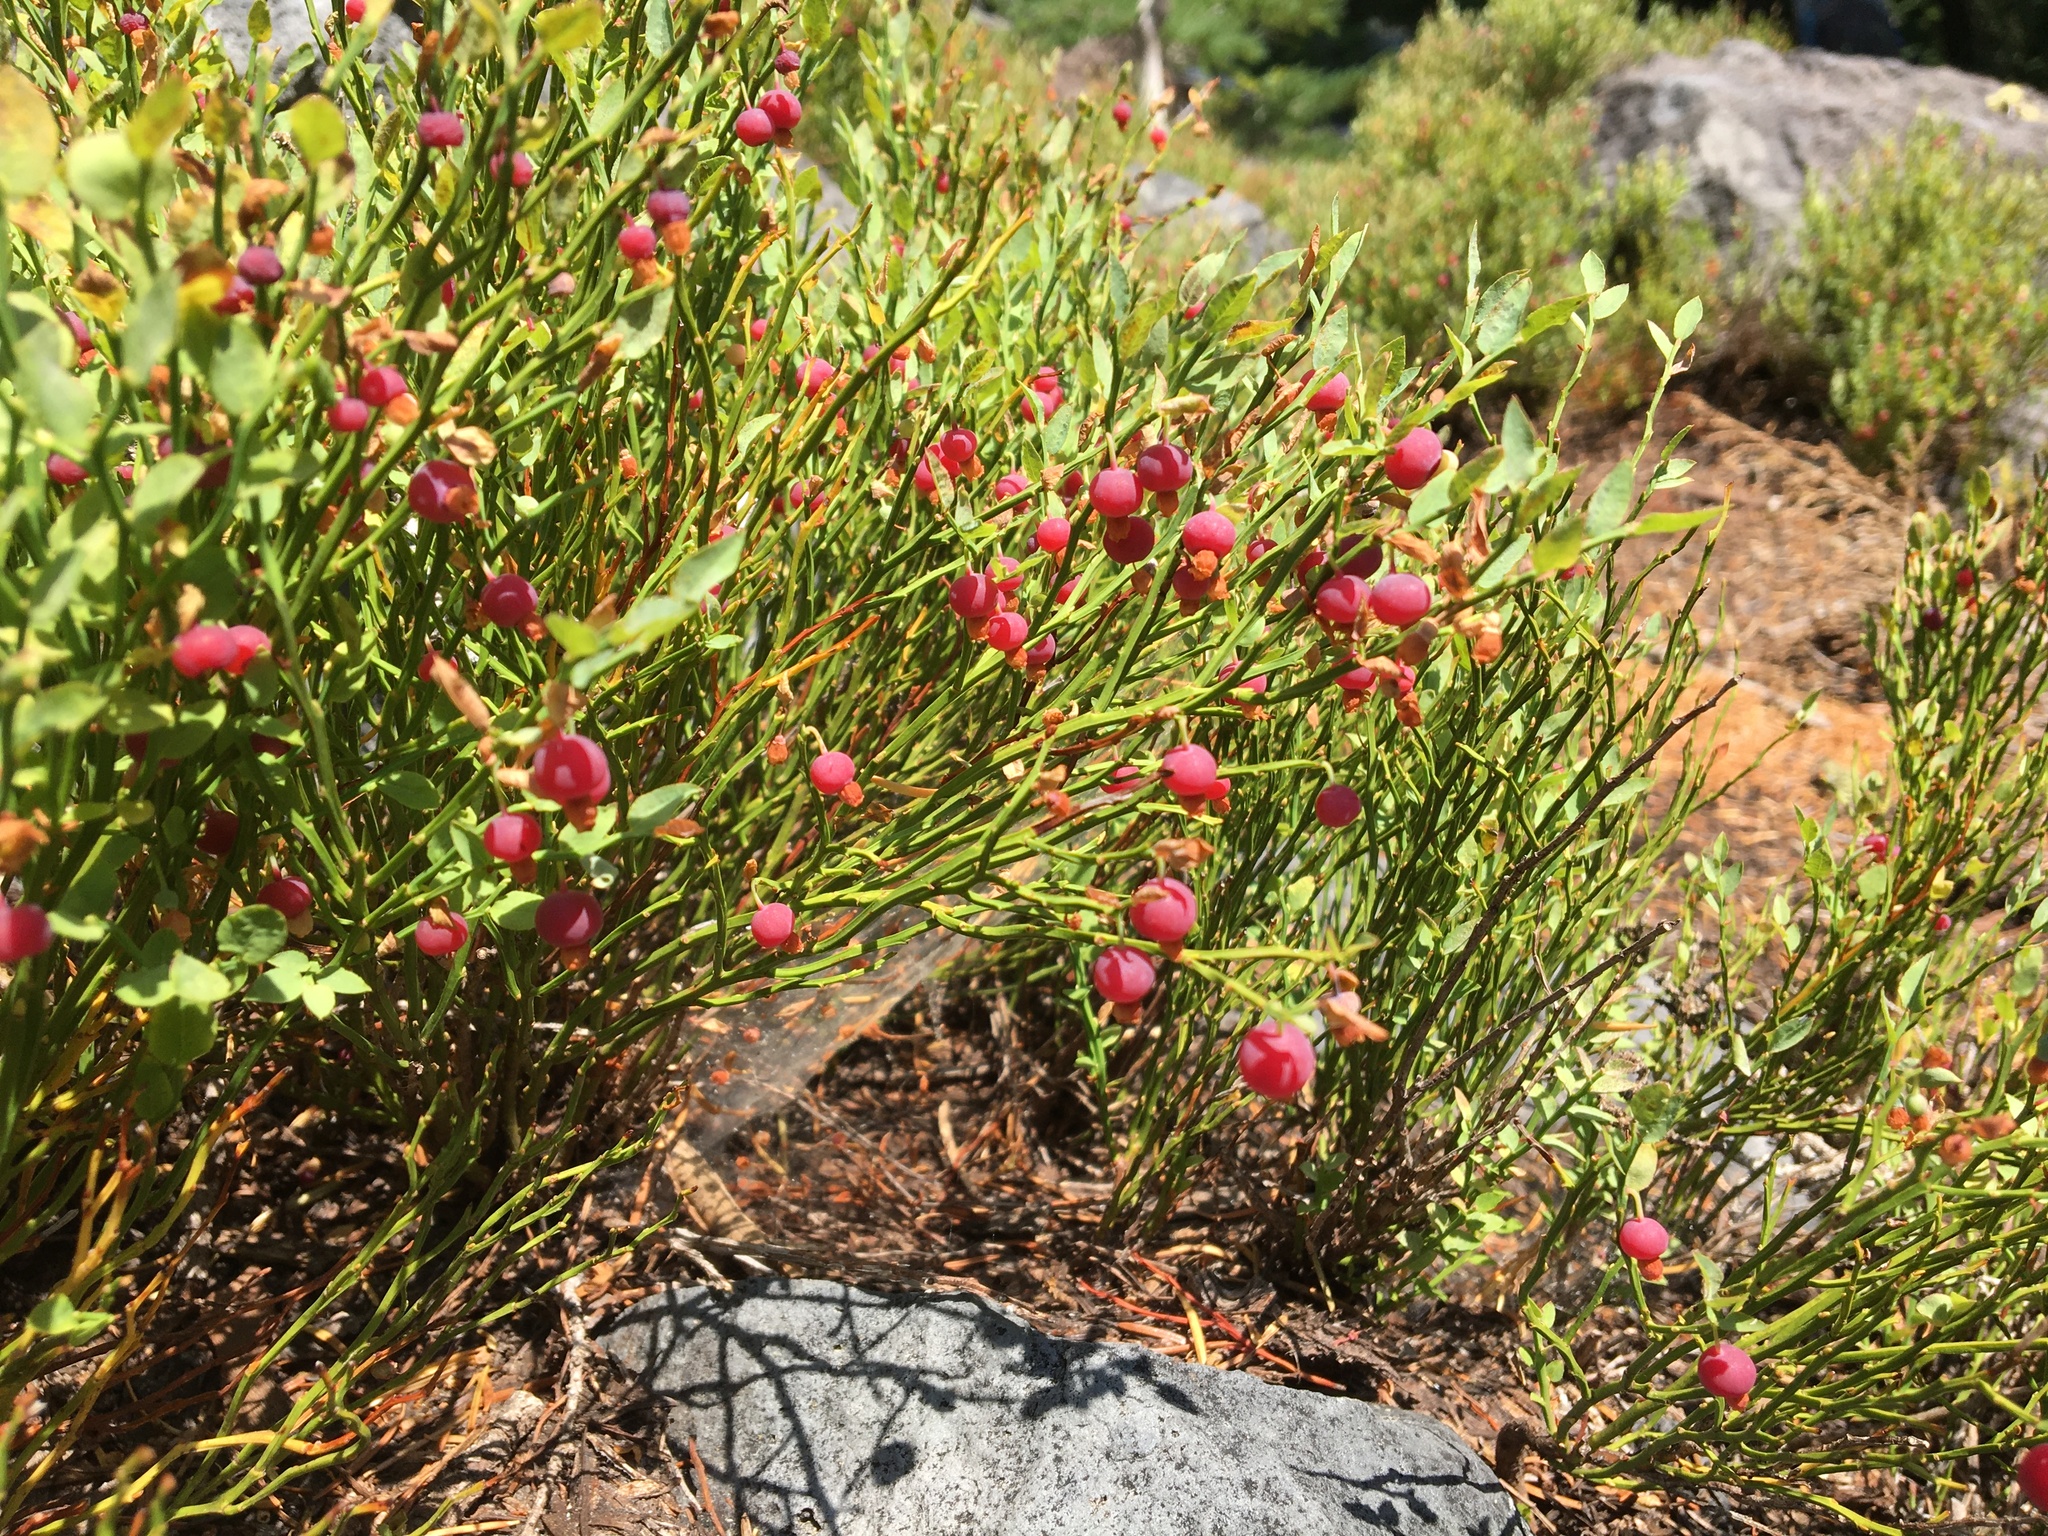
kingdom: Plantae
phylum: Tracheophyta
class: Magnoliopsida
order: Ericales
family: Ericaceae
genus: Vaccinium
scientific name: Vaccinium scoparium
